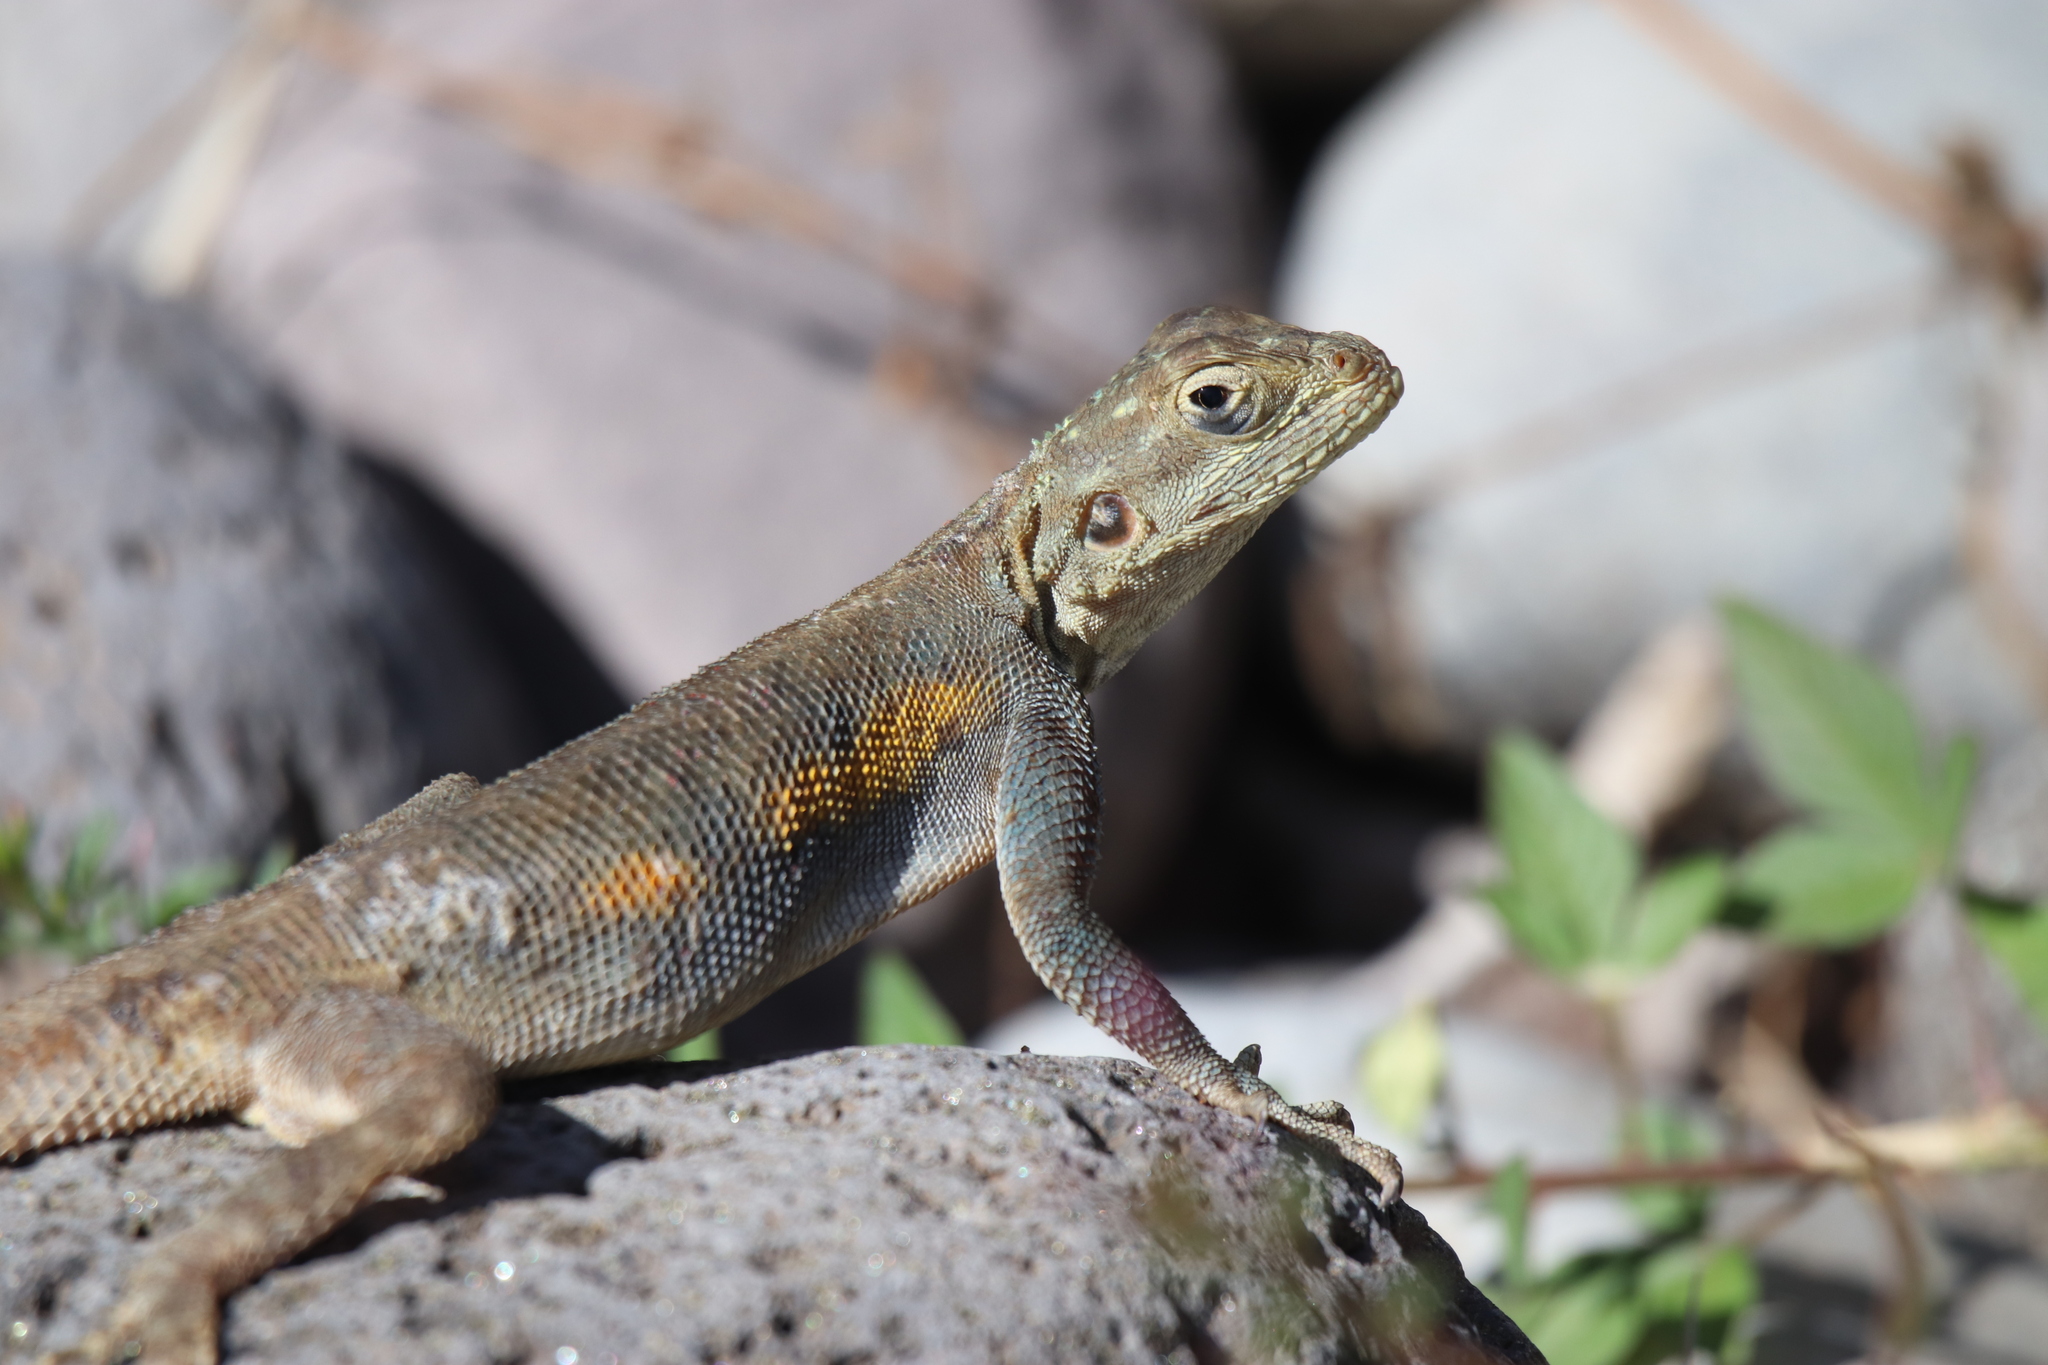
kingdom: Animalia
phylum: Chordata
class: Squamata
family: Agamidae
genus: Agama
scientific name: Agama agama
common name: Common agama
